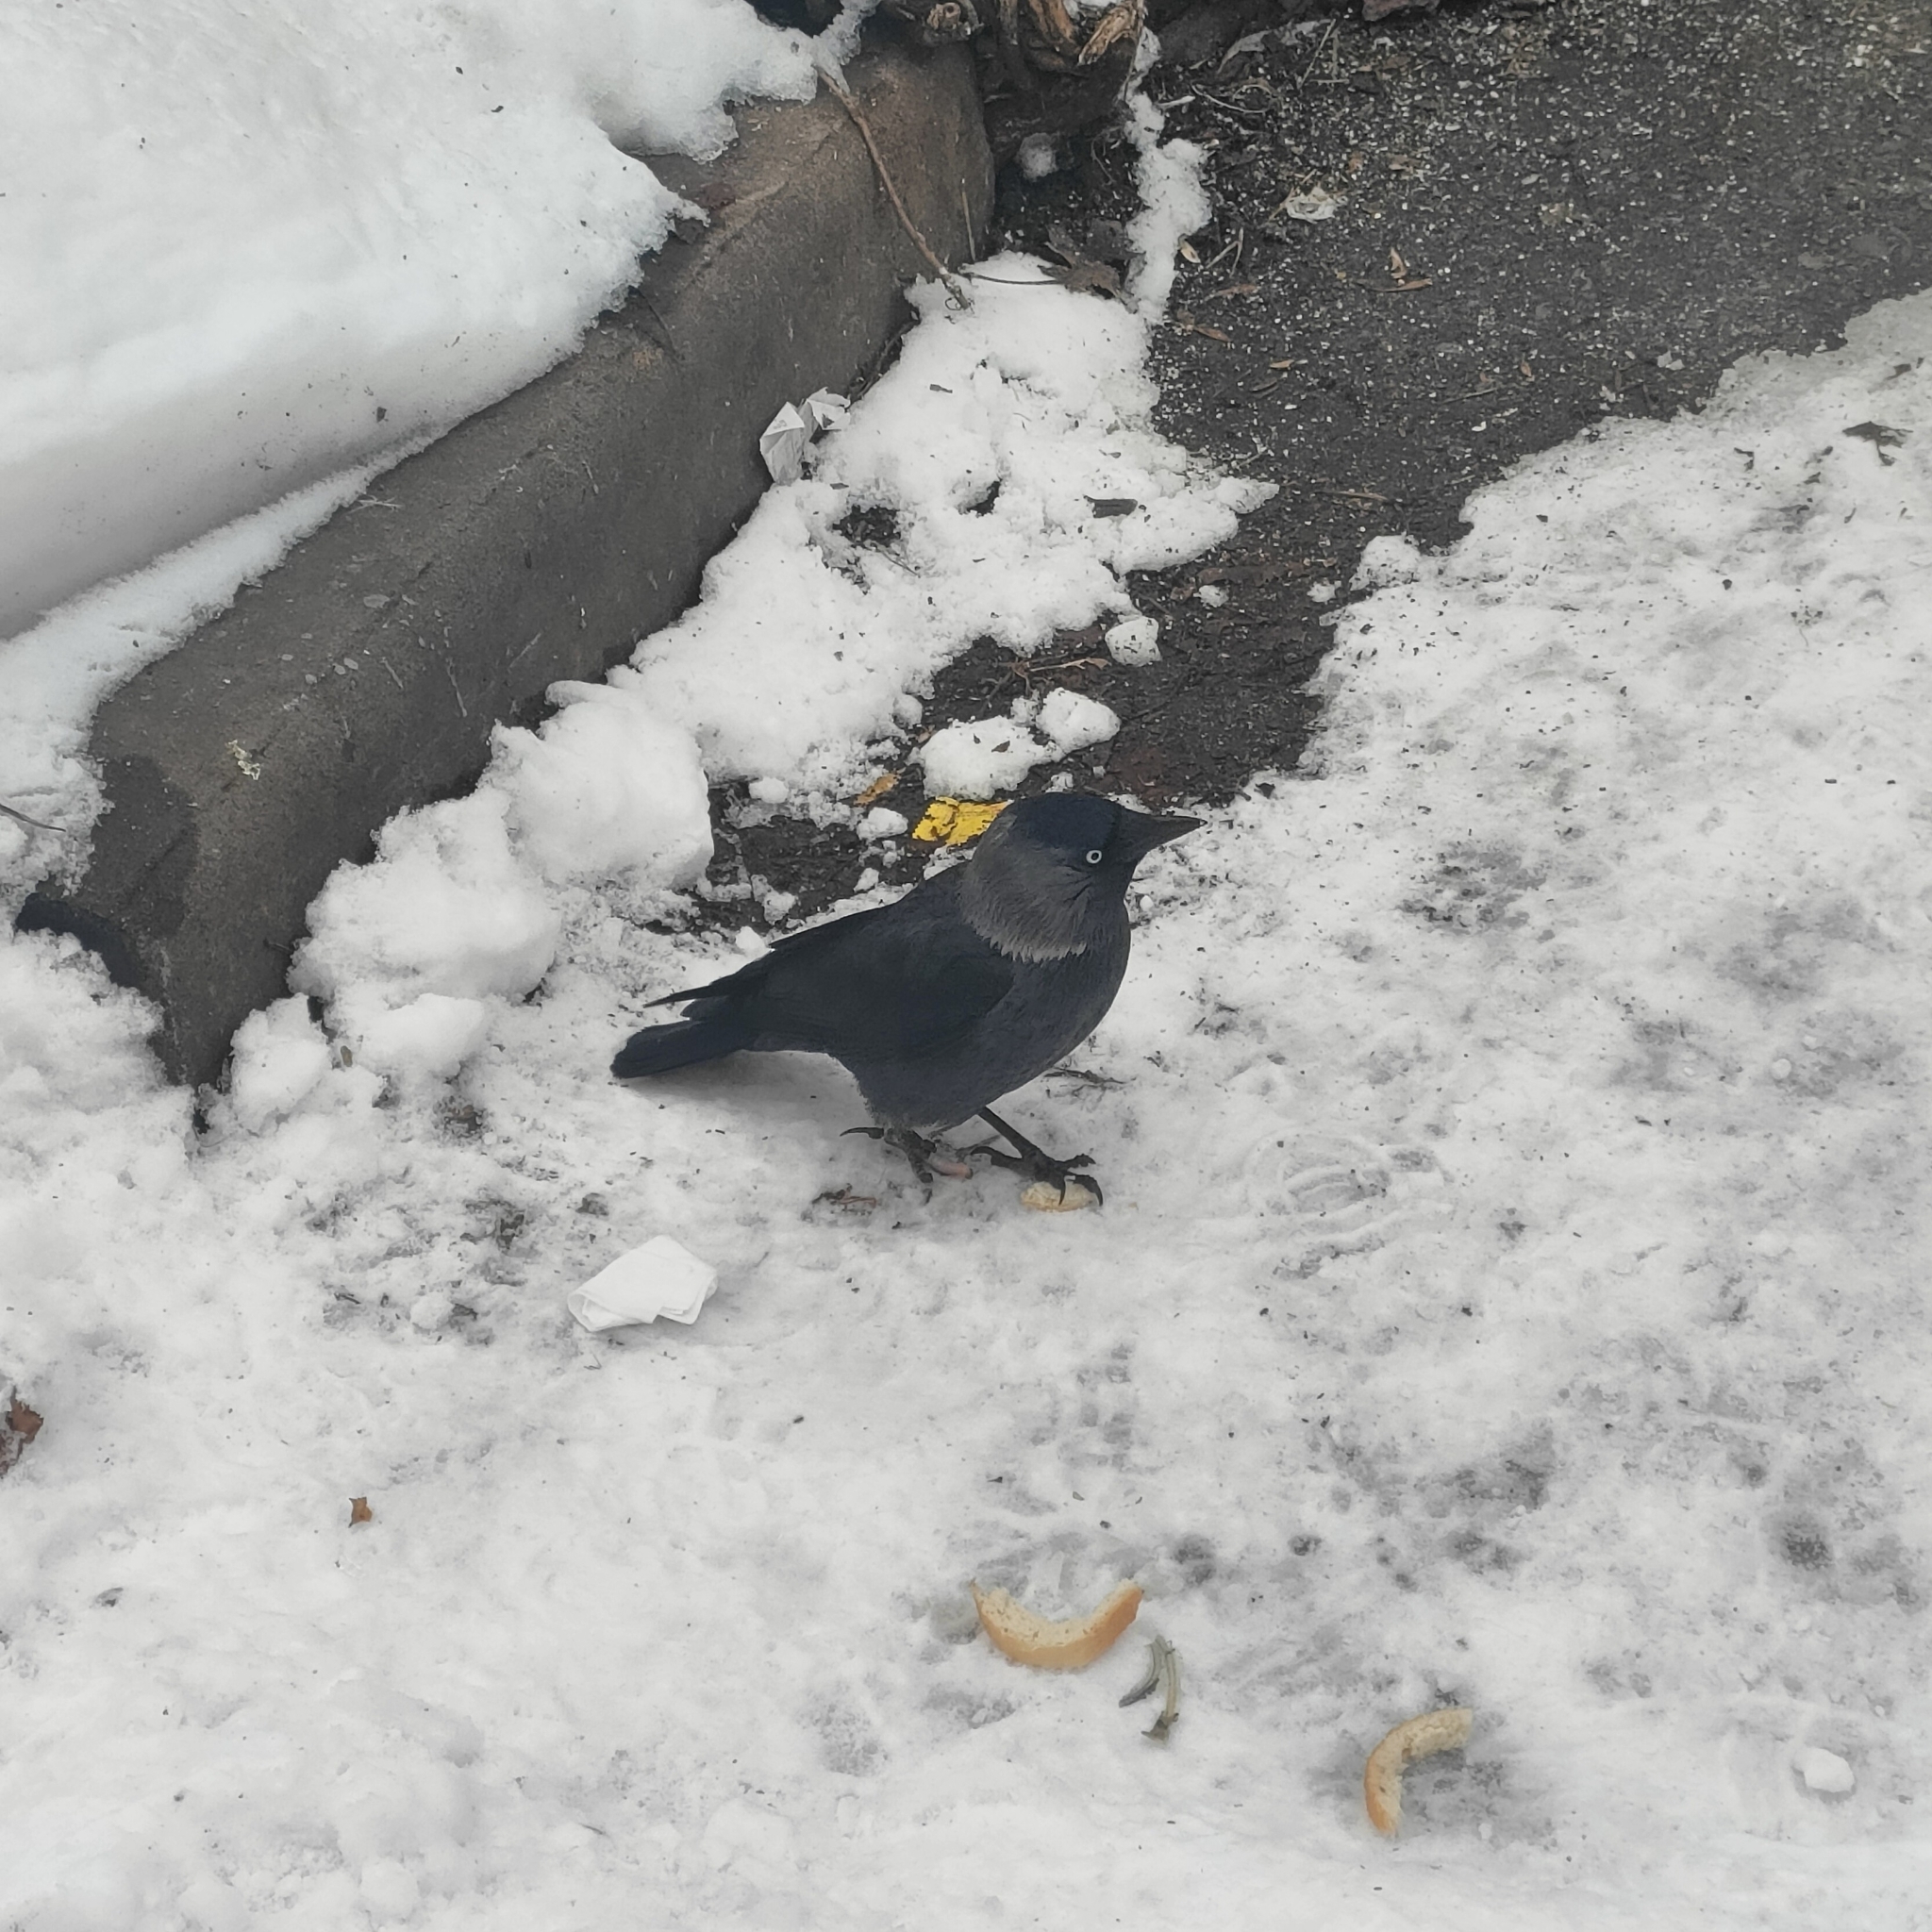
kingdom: Animalia
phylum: Chordata
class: Aves
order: Passeriformes
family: Corvidae
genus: Coloeus
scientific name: Coloeus monedula
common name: Western jackdaw
